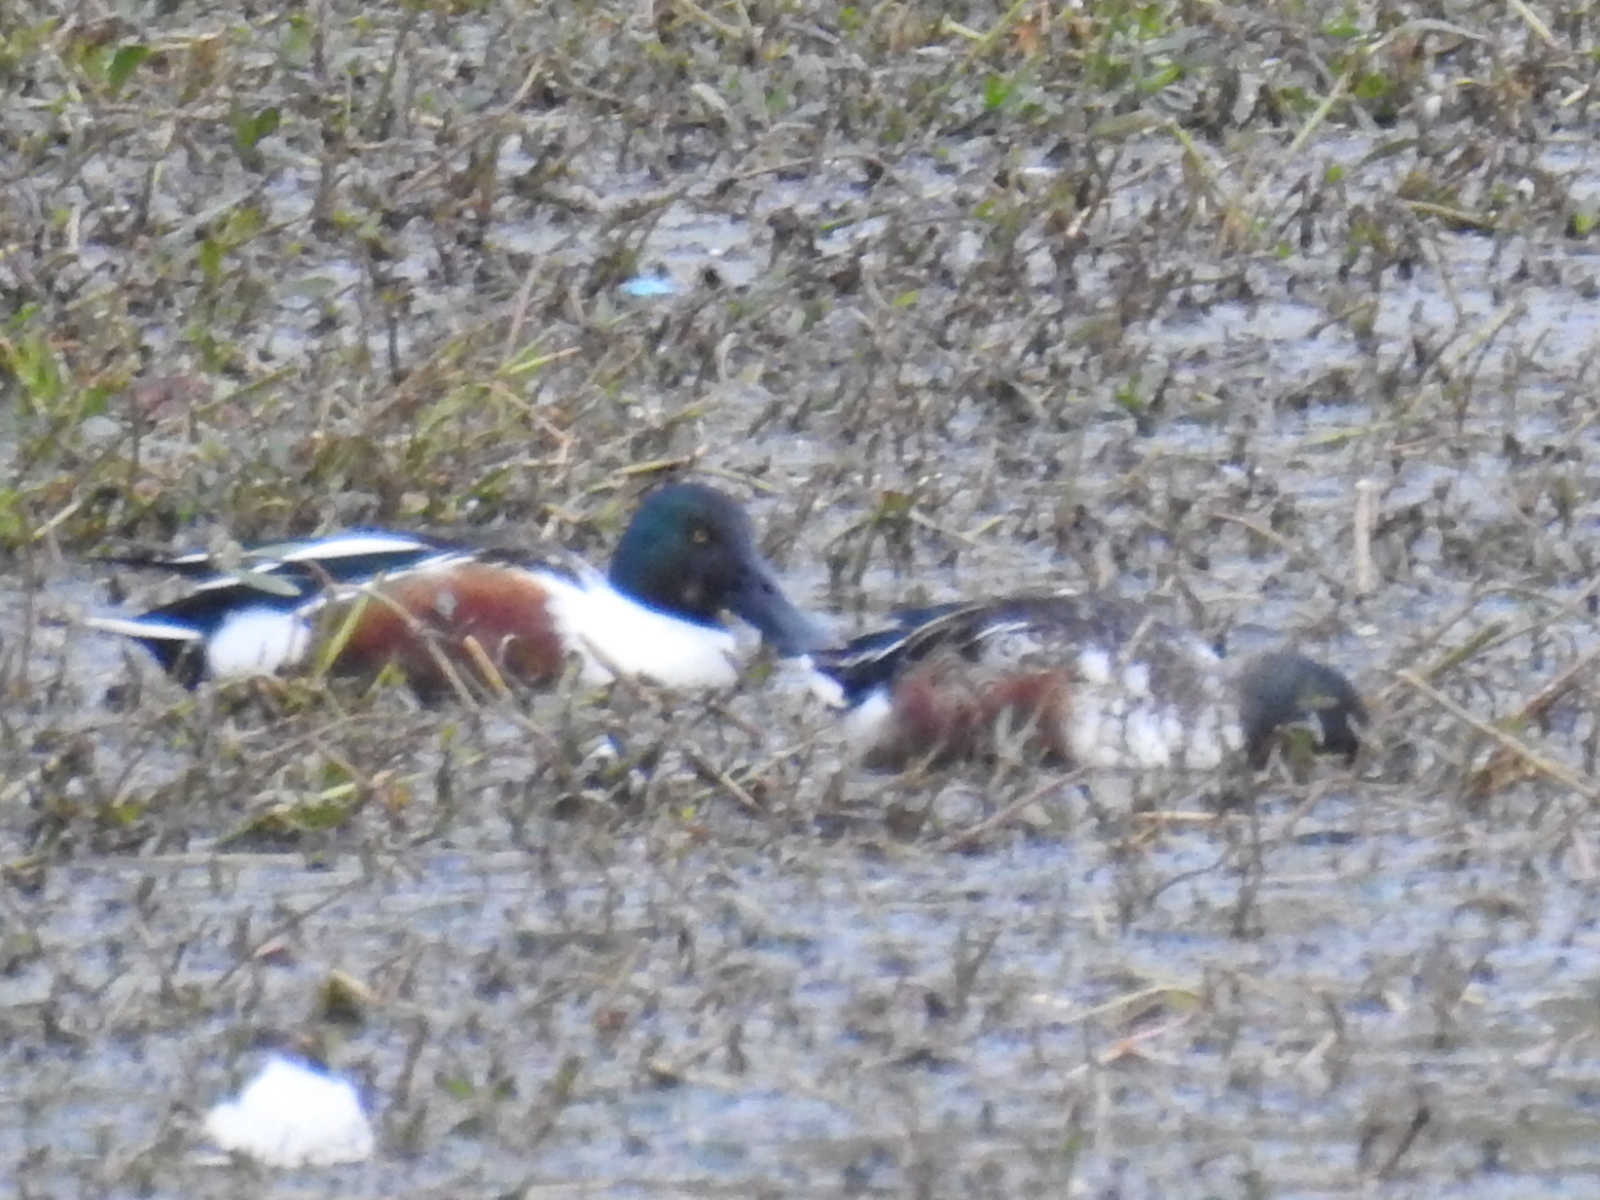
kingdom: Animalia
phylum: Chordata
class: Aves
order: Anseriformes
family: Anatidae
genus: Spatula
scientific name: Spatula clypeata
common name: Northern shoveler
